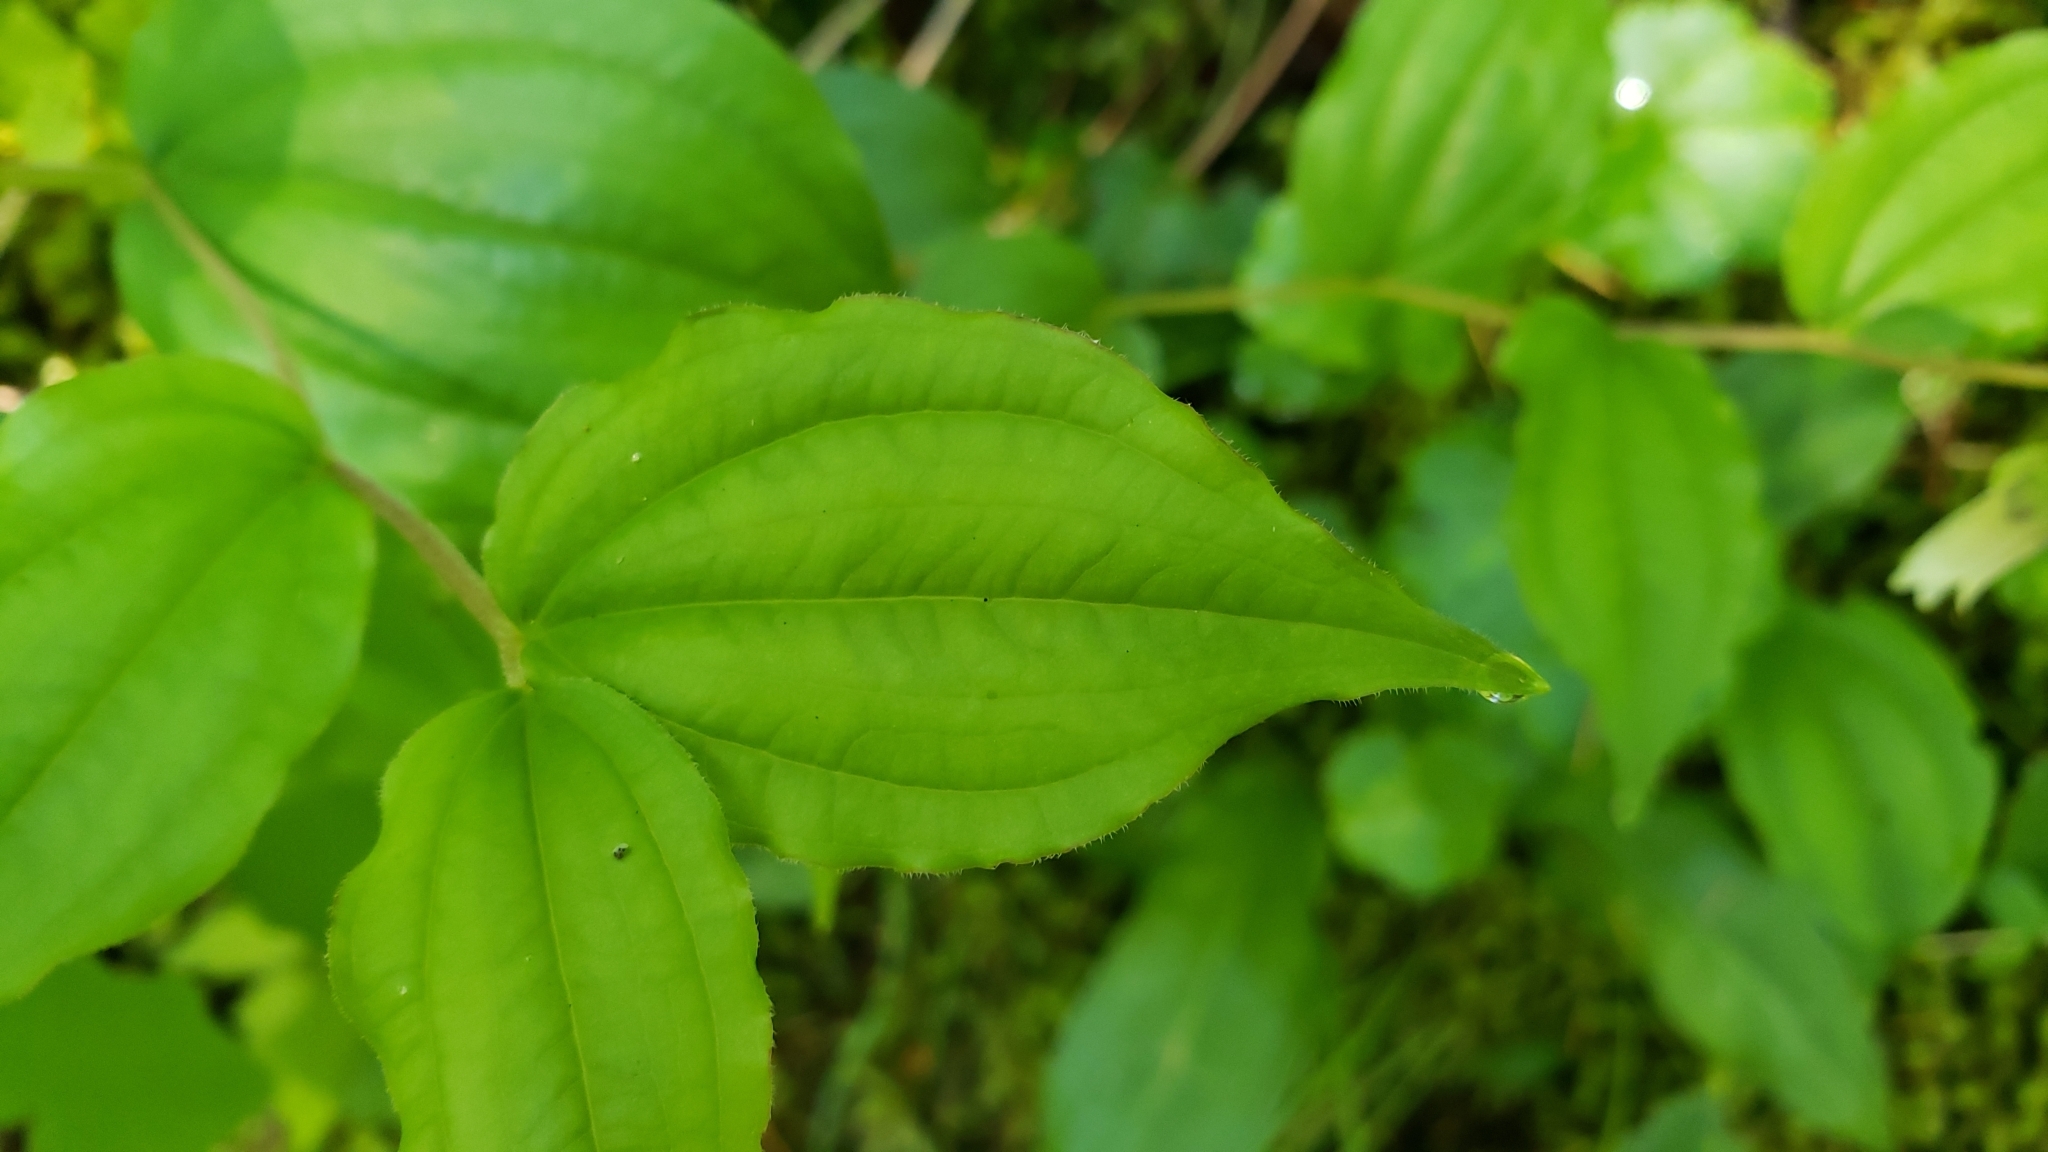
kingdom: Plantae
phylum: Tracheophyta
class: Liliopsida
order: Liliales
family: Liliaceae
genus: Prosartes
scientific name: Prosartes smithii
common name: Fairy-lantern
